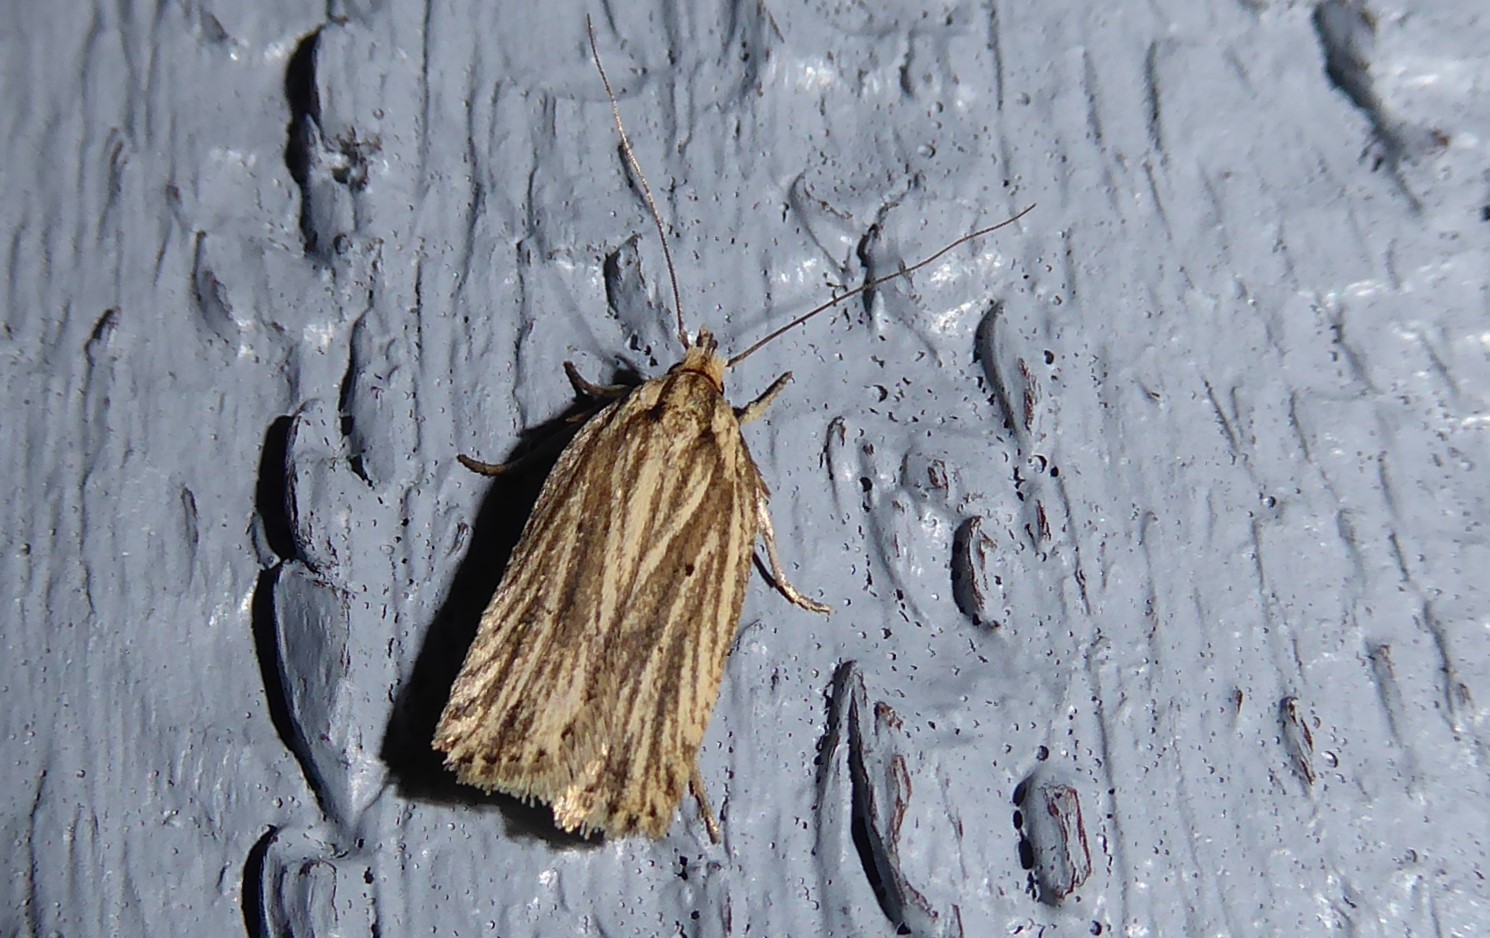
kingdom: Animalia
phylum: Arthropoda
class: Insecta
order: Lepidoptera
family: Depressariidae
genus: Agonopterix
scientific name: Agonopterix
